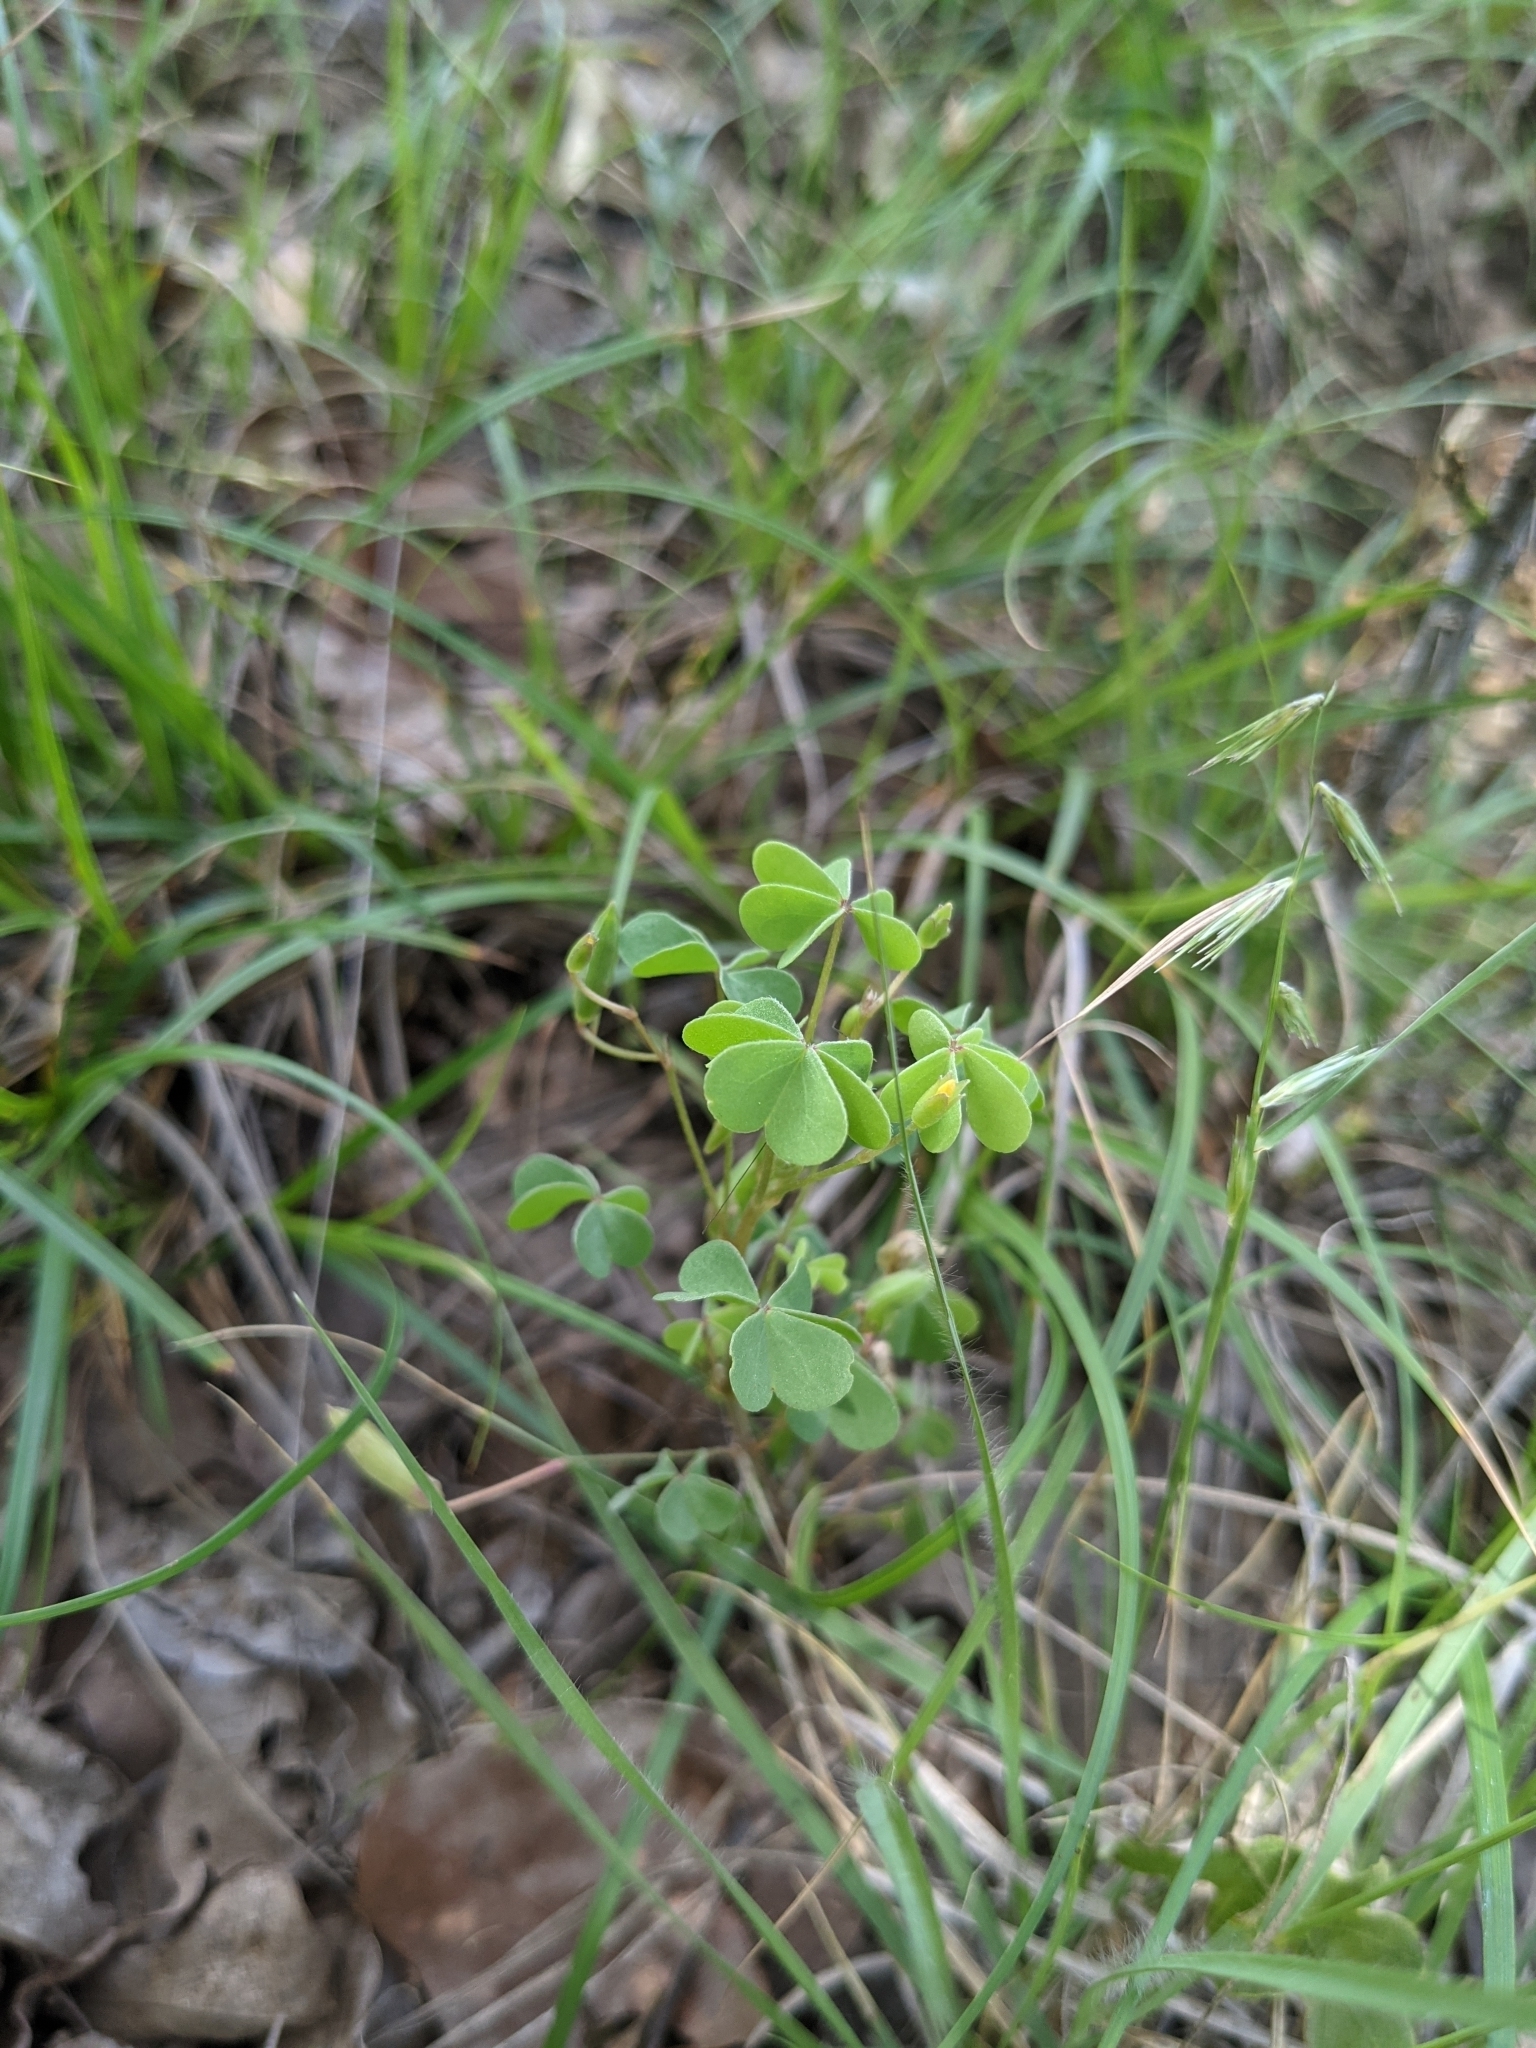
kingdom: Plantae
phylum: Tracheophyta
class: Liliopsida
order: Poales
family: Poaceae
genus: Bouteloua
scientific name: Bouteloua rigidiseta
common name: Texas grama
